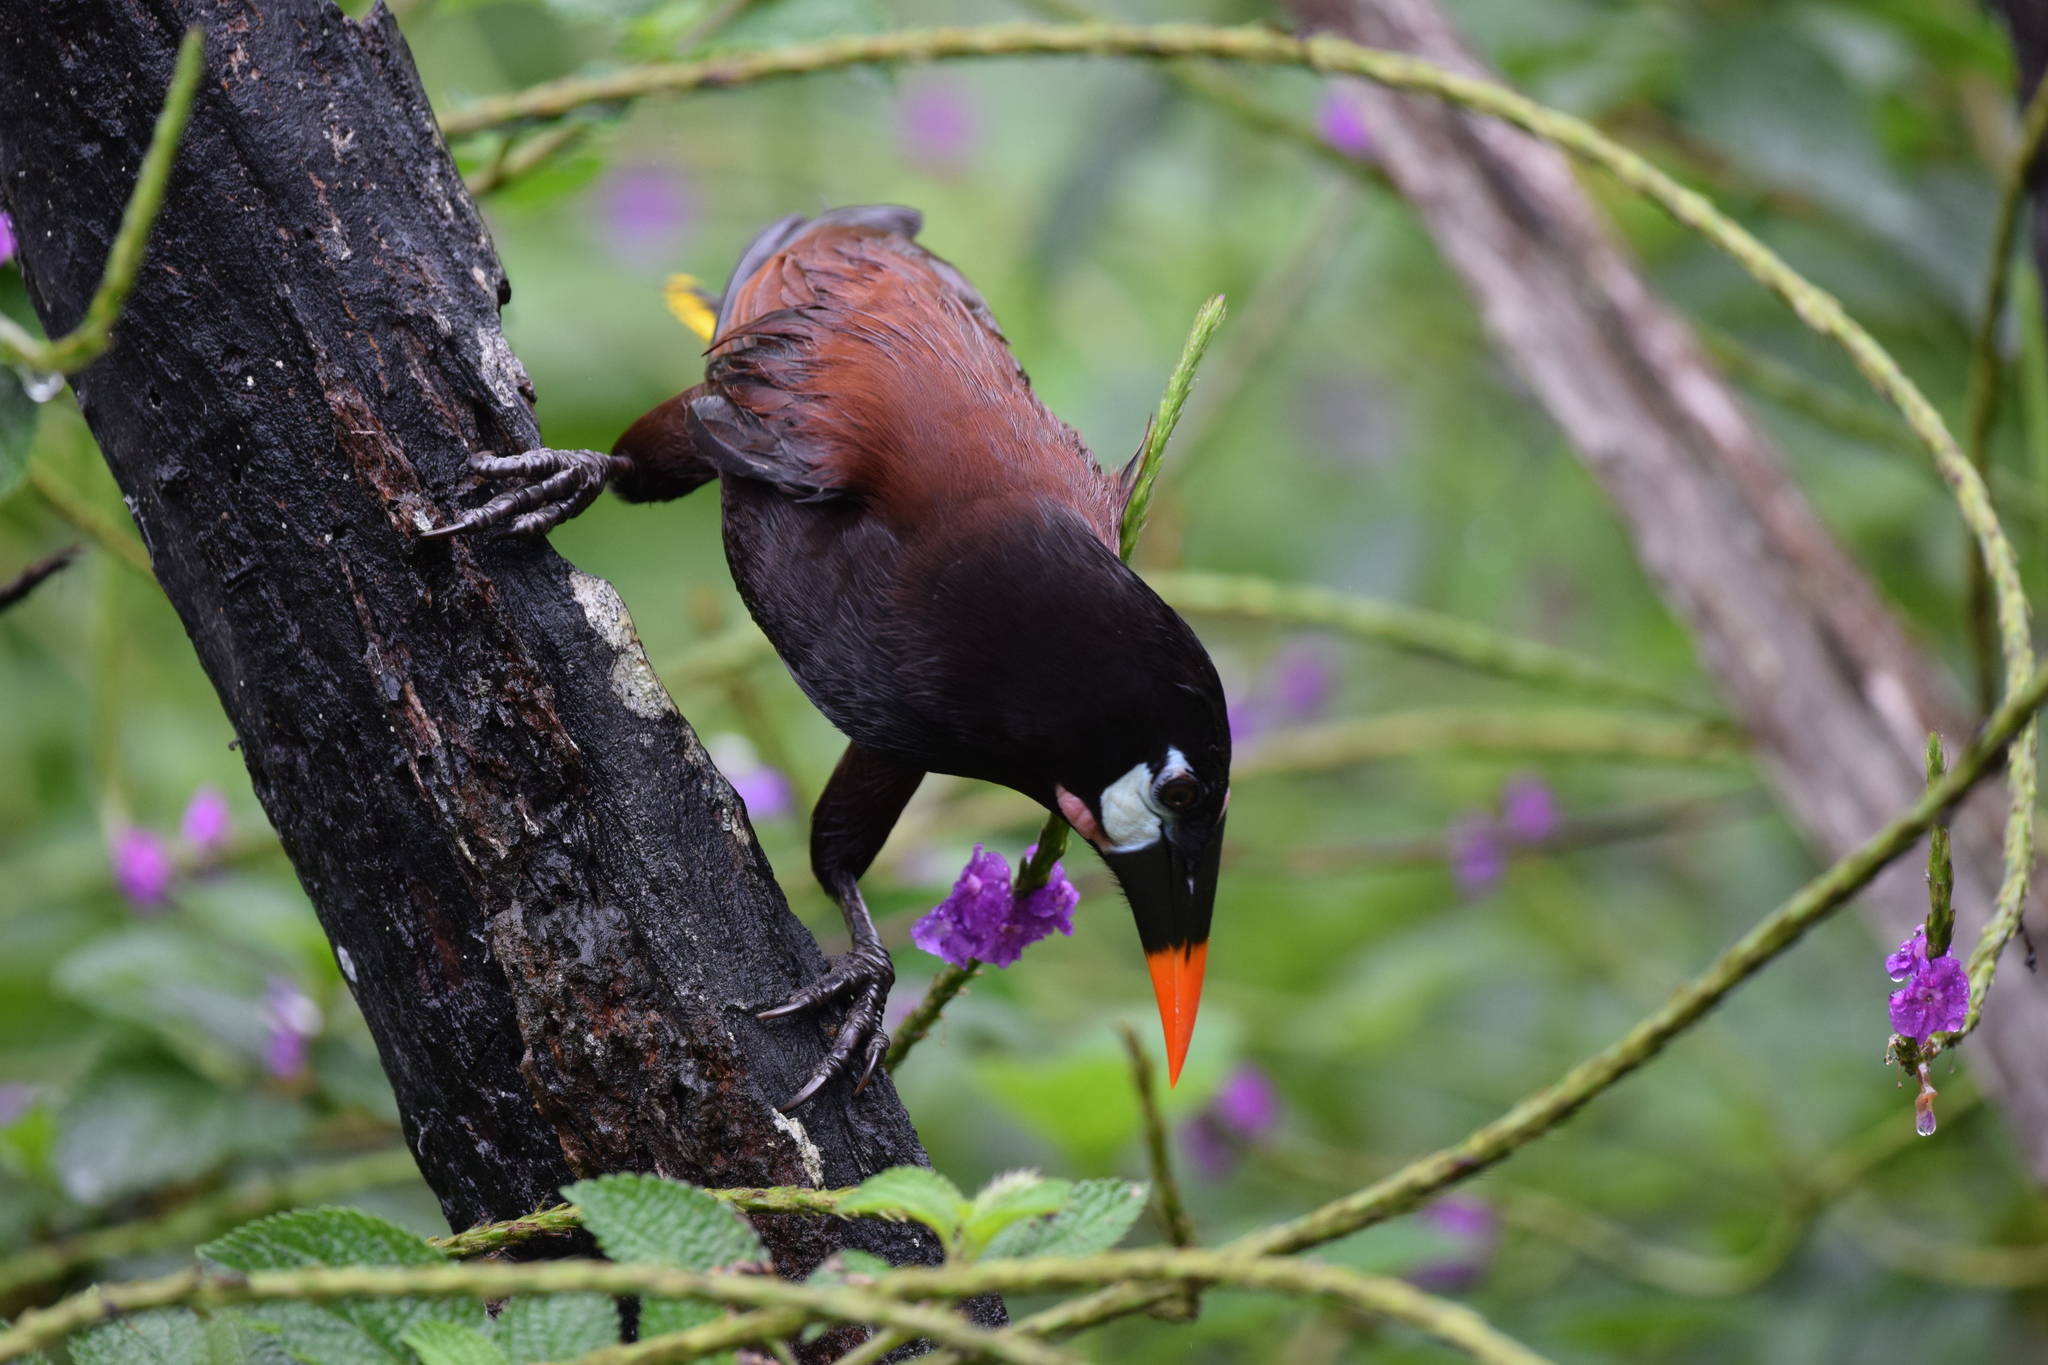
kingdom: Animalia
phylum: Chordata
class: Aves
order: Passeriformes
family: Icteridae
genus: Psarocolius
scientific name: Psarocolius montezuma
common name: Montezuma oropendola
